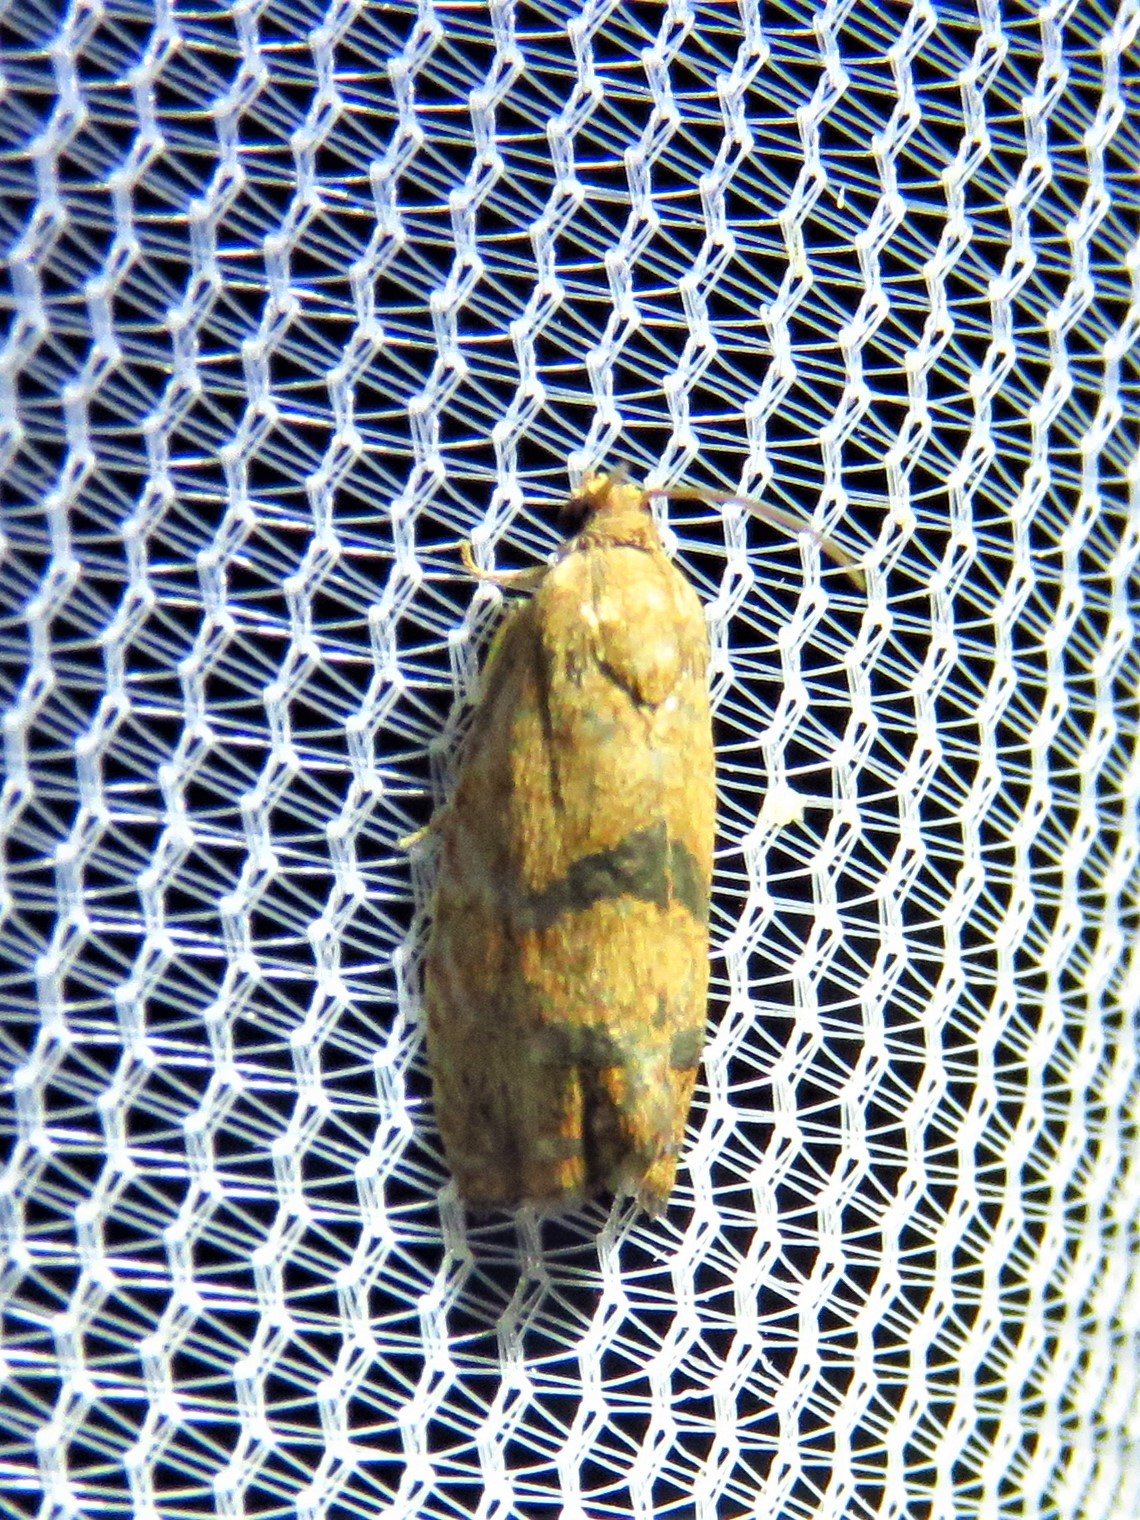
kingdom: Animalia
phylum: Arthropoda
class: Insecta
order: Lepidoptera
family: Tortricidae
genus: Cydia
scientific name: Cydia latiferreana
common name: Filbertworm moth
